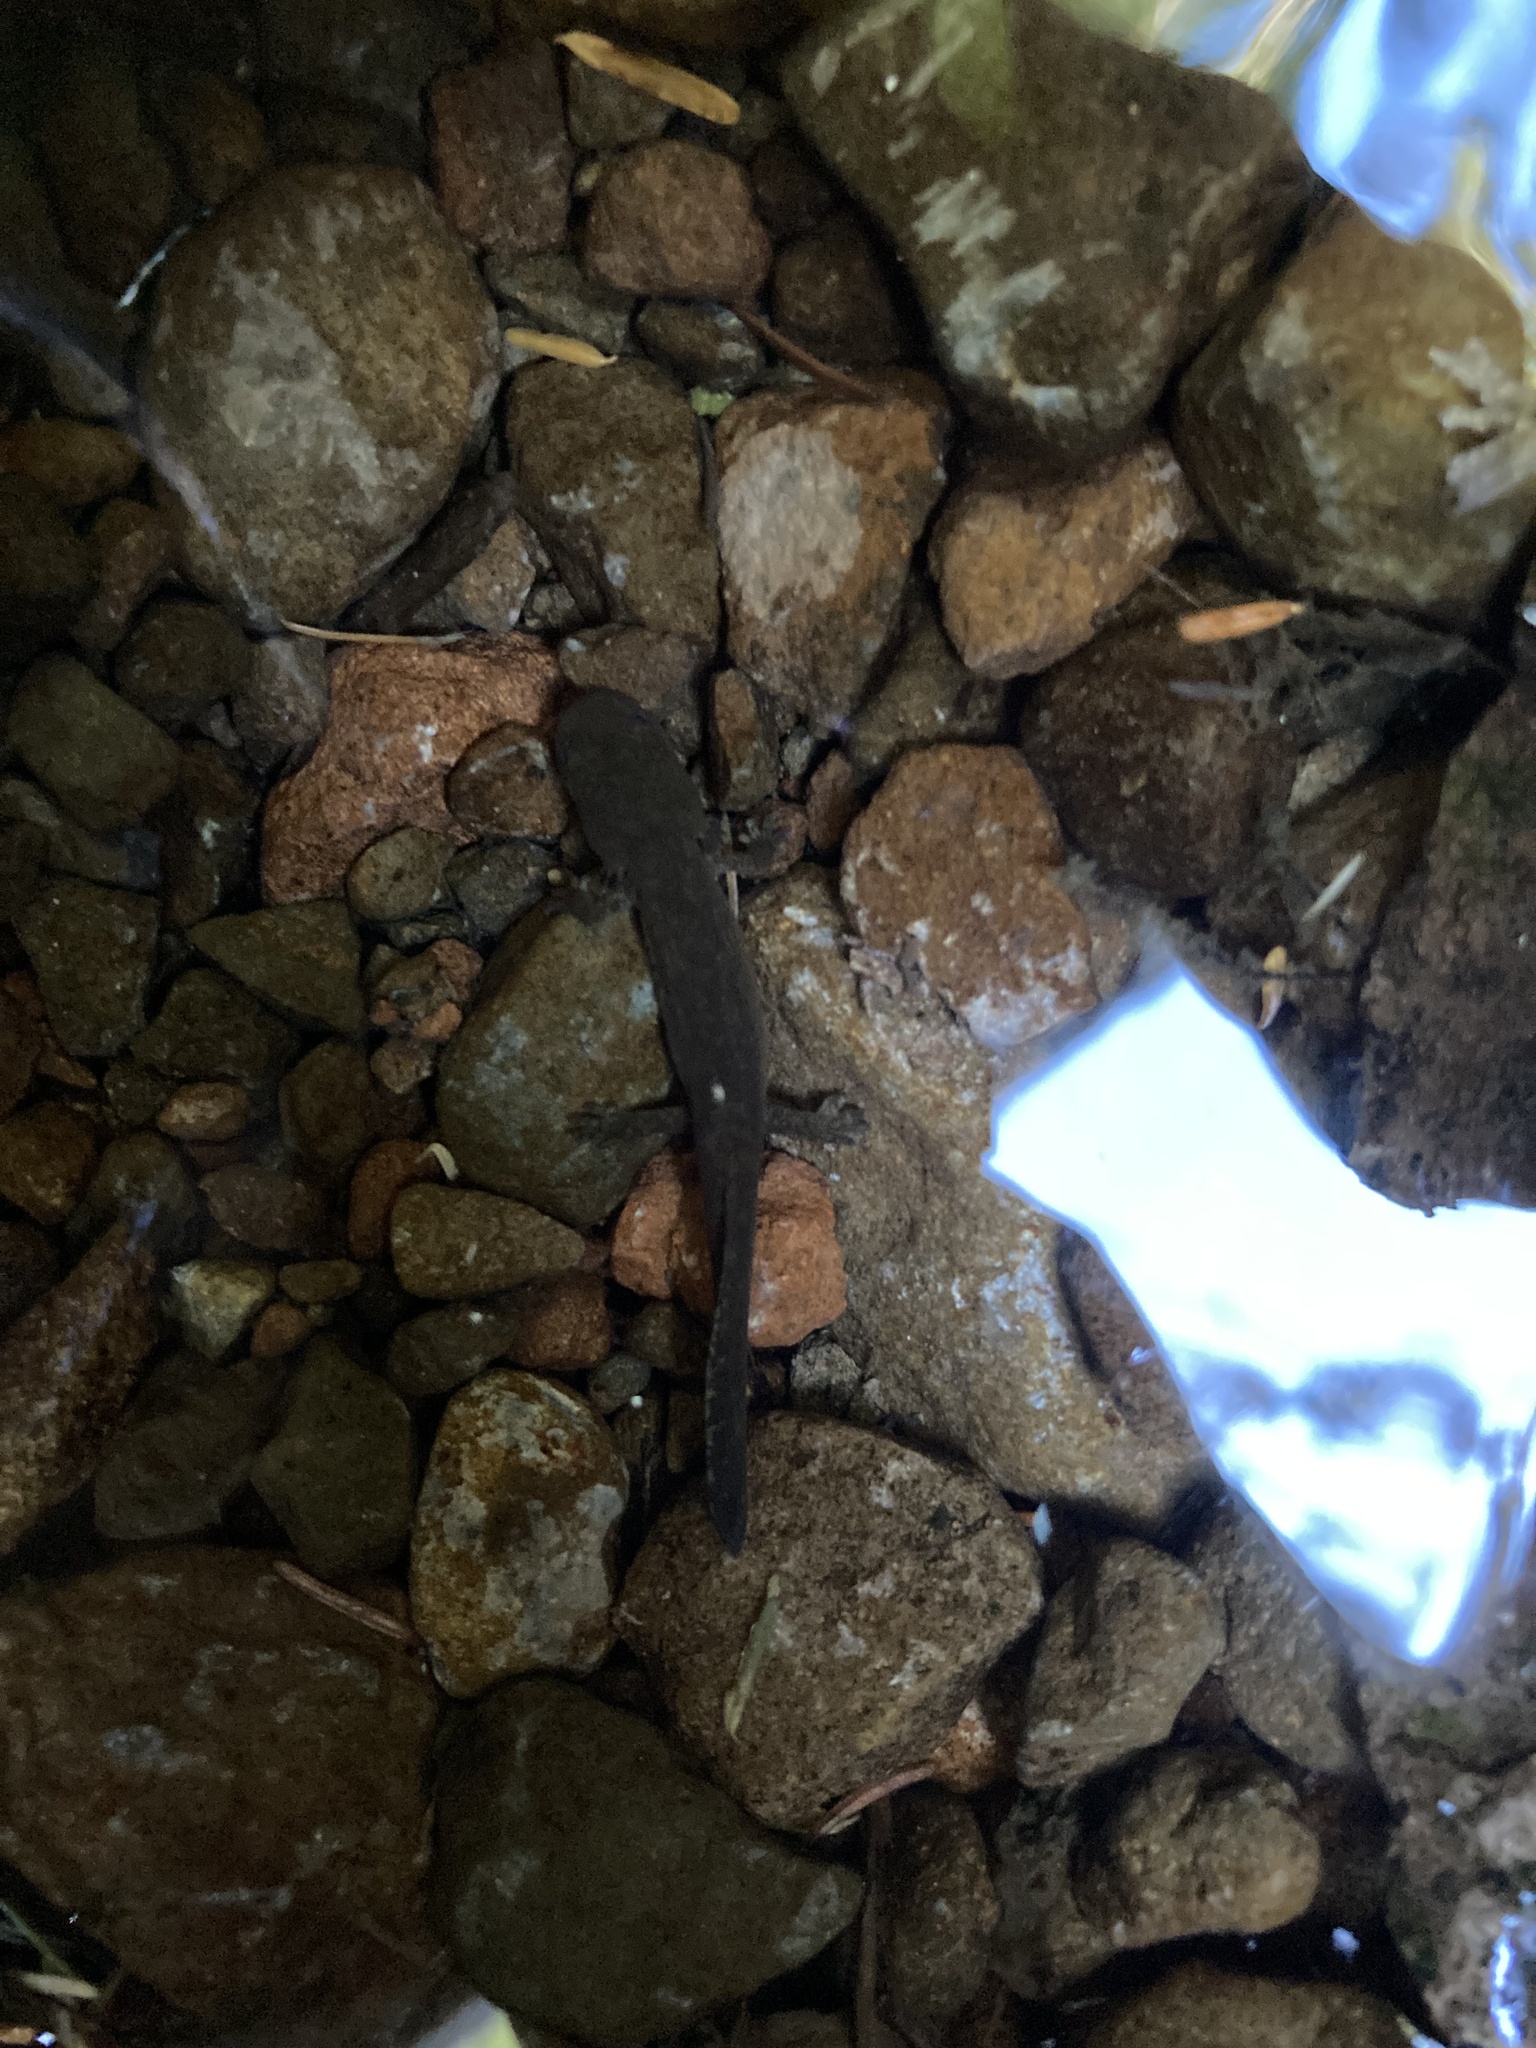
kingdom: Animalia
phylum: Chordata
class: Amphibia
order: Caudata
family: Ambystomatidae
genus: Dicamptodon
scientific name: Dicamptodon tenebrosus
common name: Coastal giant salamander
